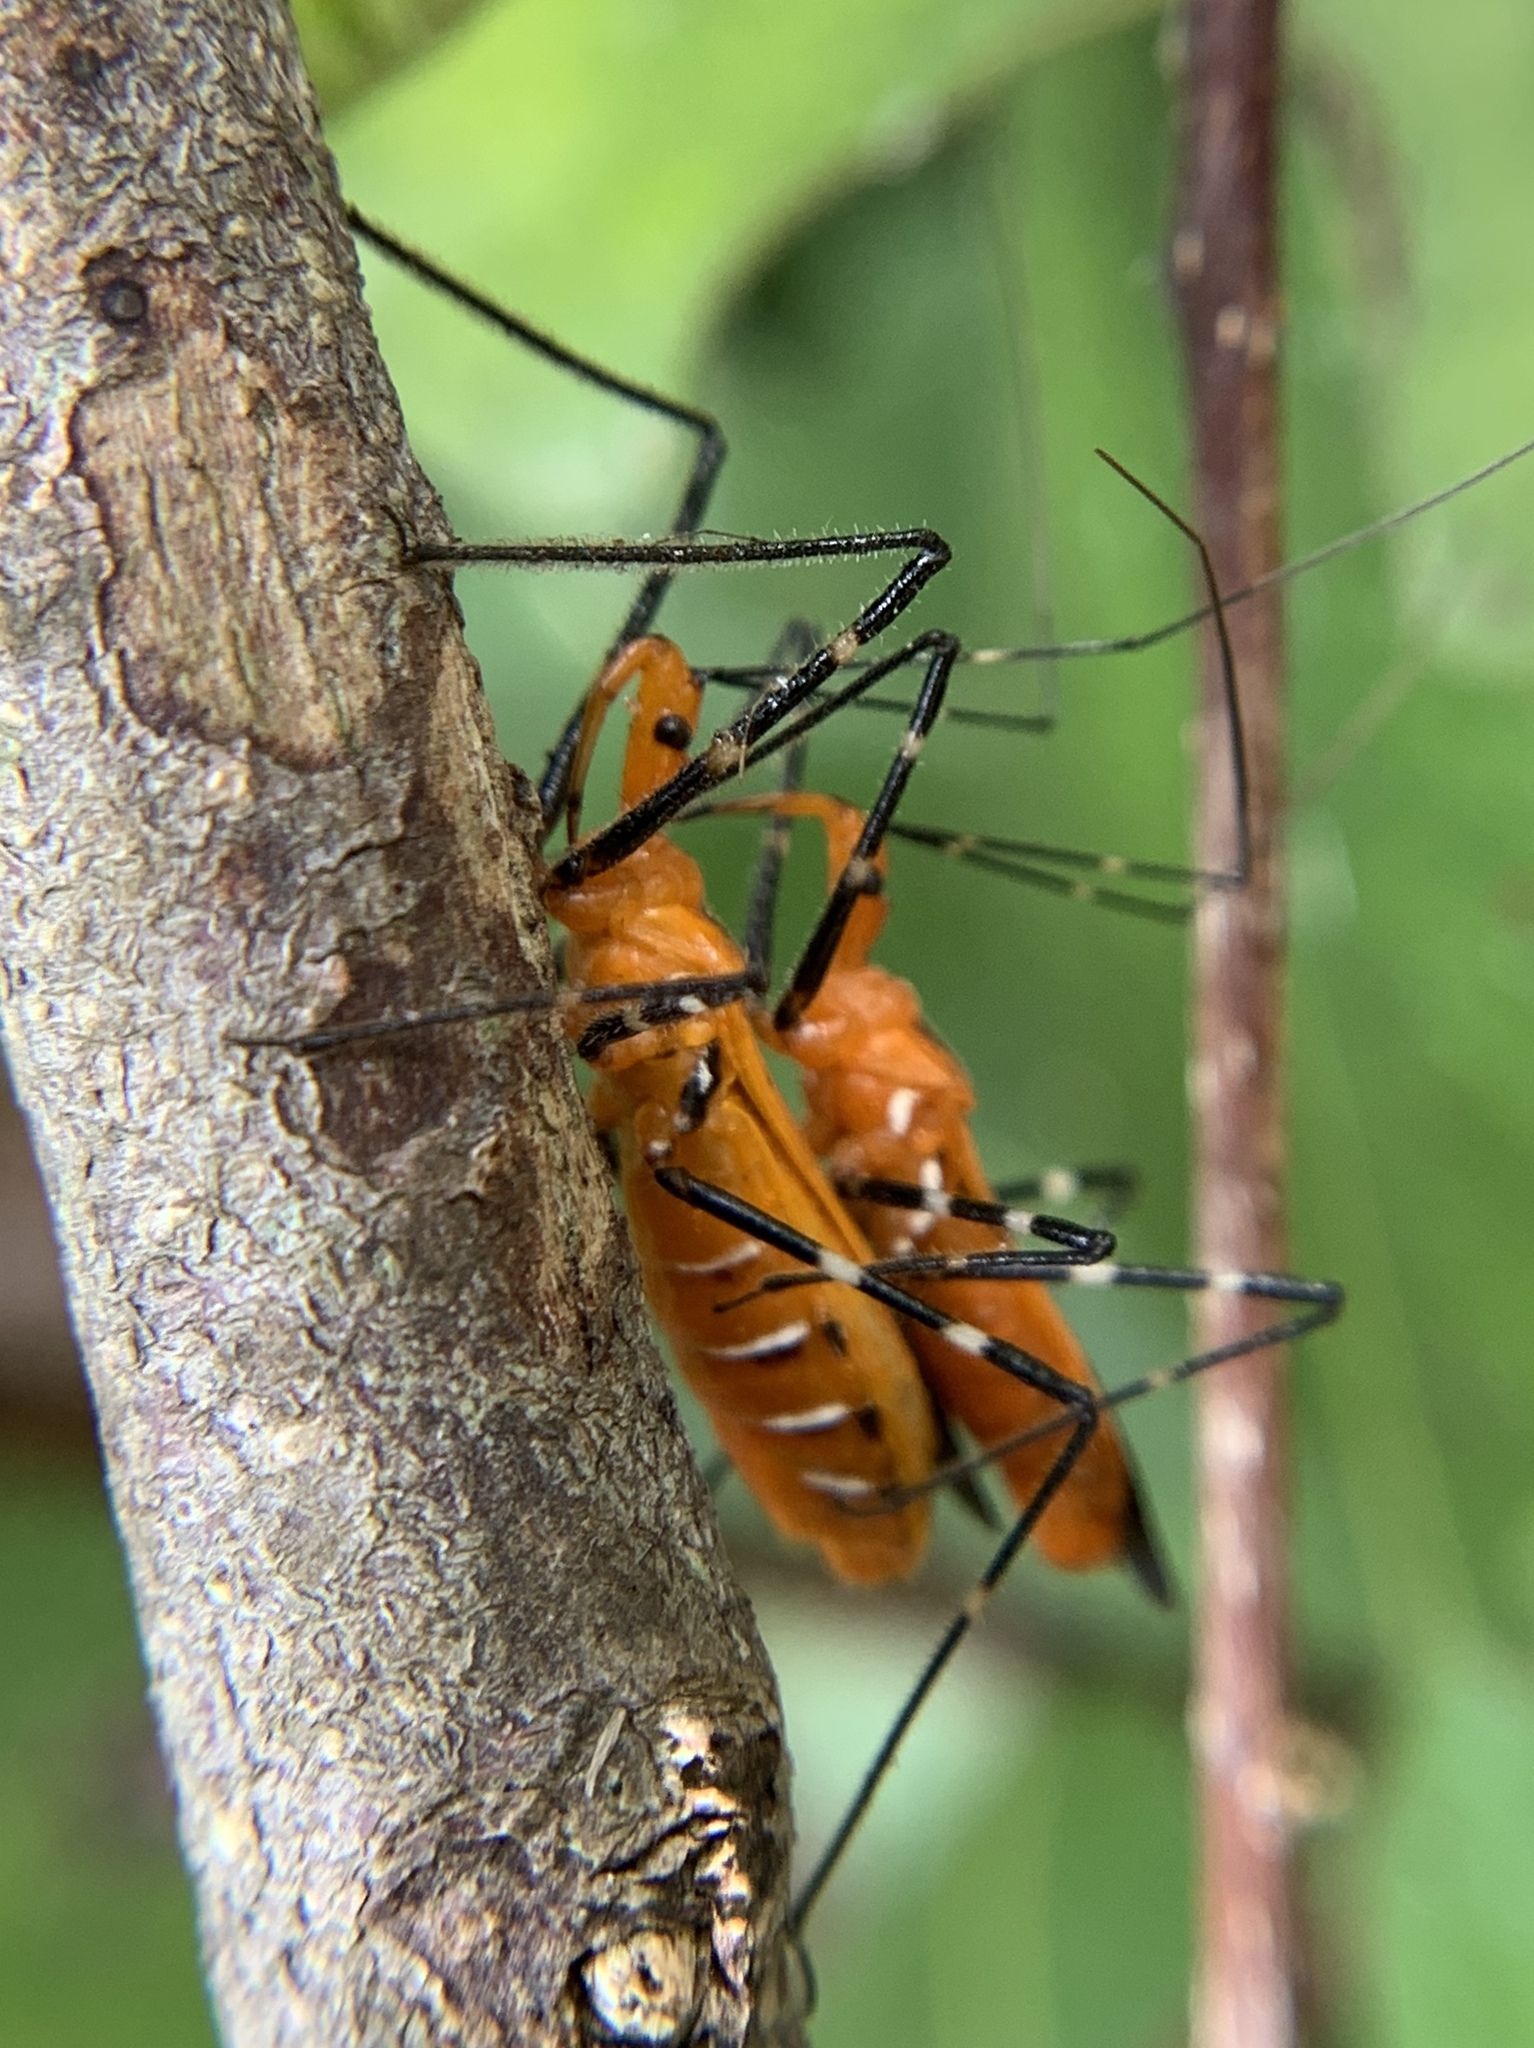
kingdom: Animalia
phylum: Arthropoda
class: Insecta
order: Hemiptera
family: Reduviidae
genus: Zelus
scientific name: Zelus longipes
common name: Milkweed assassin bug
